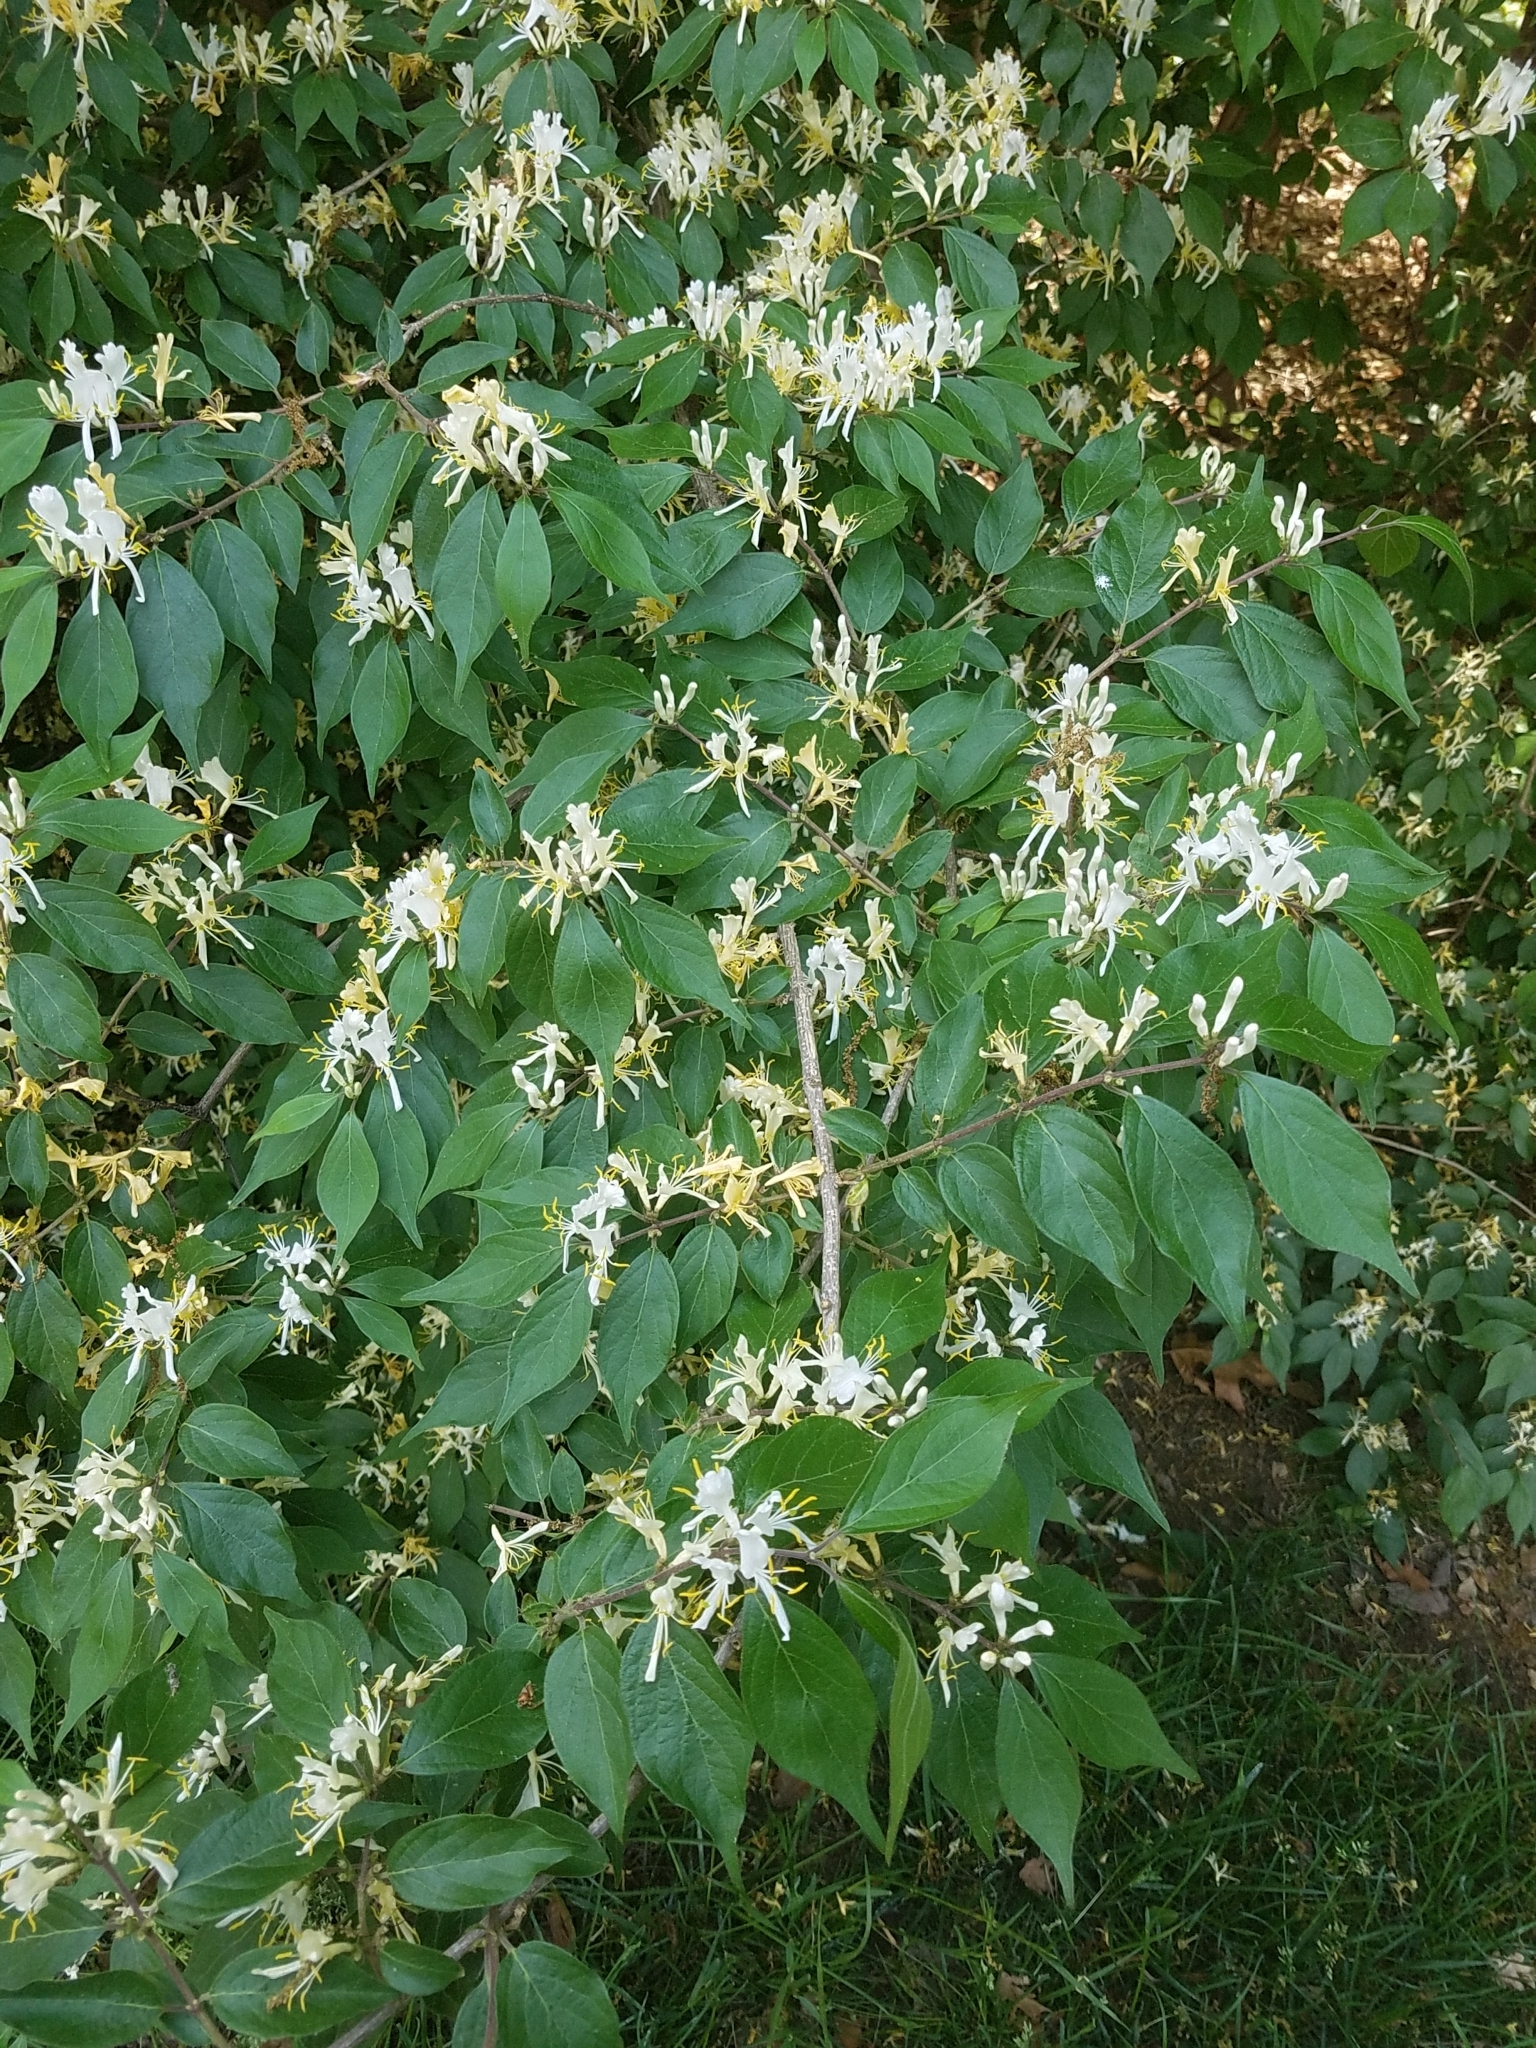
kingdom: Plantae
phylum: Tracheophyta
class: Magnoliopsida
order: Dipsacales
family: Caprifoliaceae
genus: Lonicera
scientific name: Lonicera maackii
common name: Amur honeysuckle
